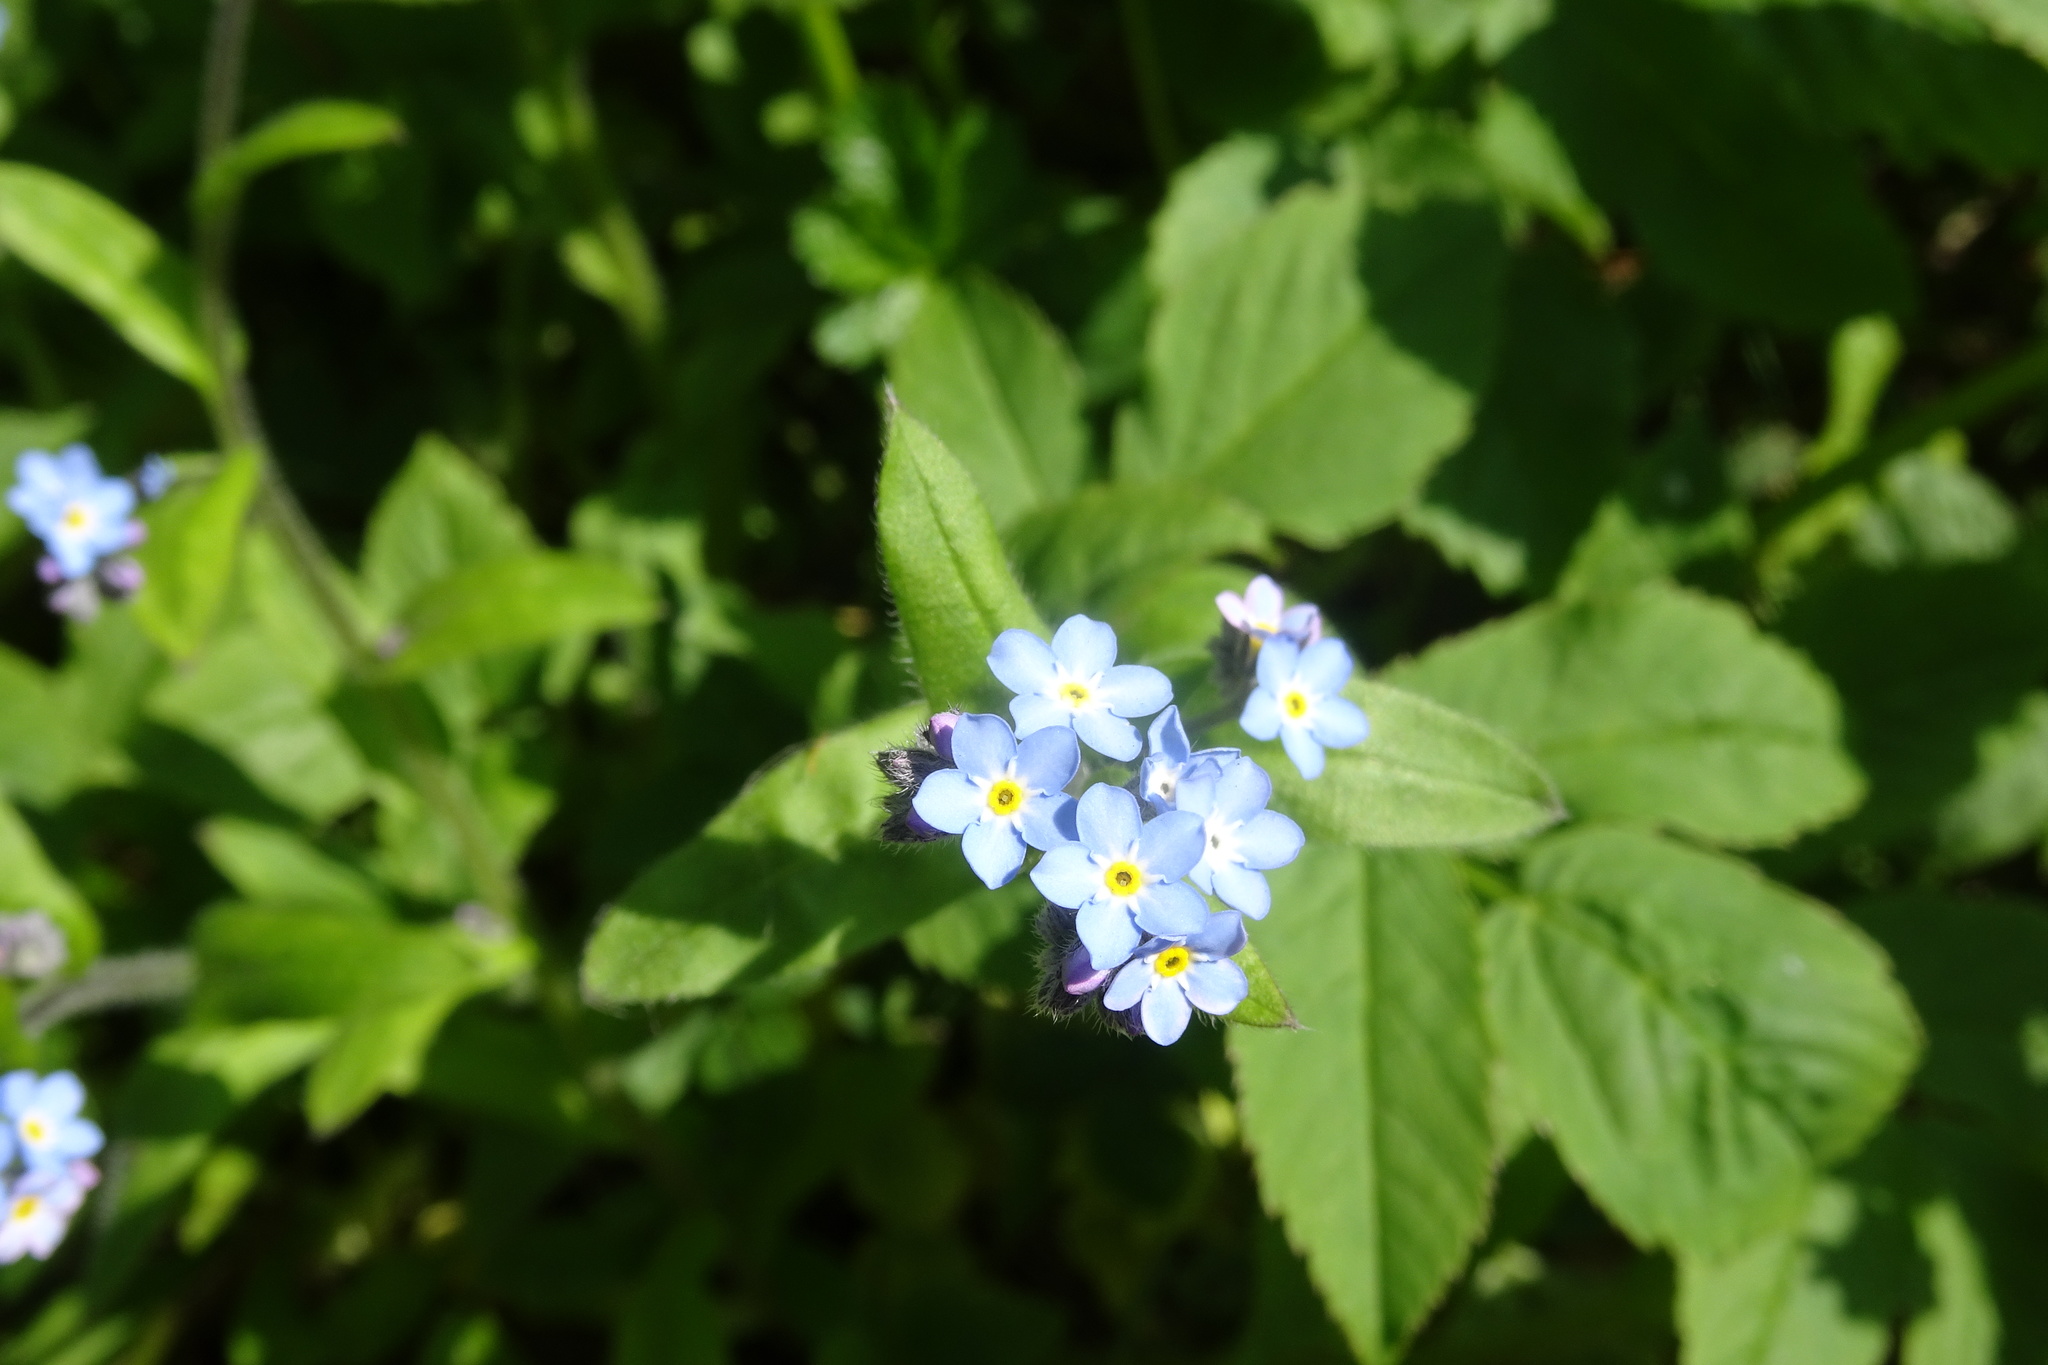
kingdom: Plantae
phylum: Tracheophyta
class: Magnoliopsida
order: Boraginales
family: Boraginaceae
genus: Myosotis
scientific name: Myosotis sylvatica
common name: Wood forget-me-not
